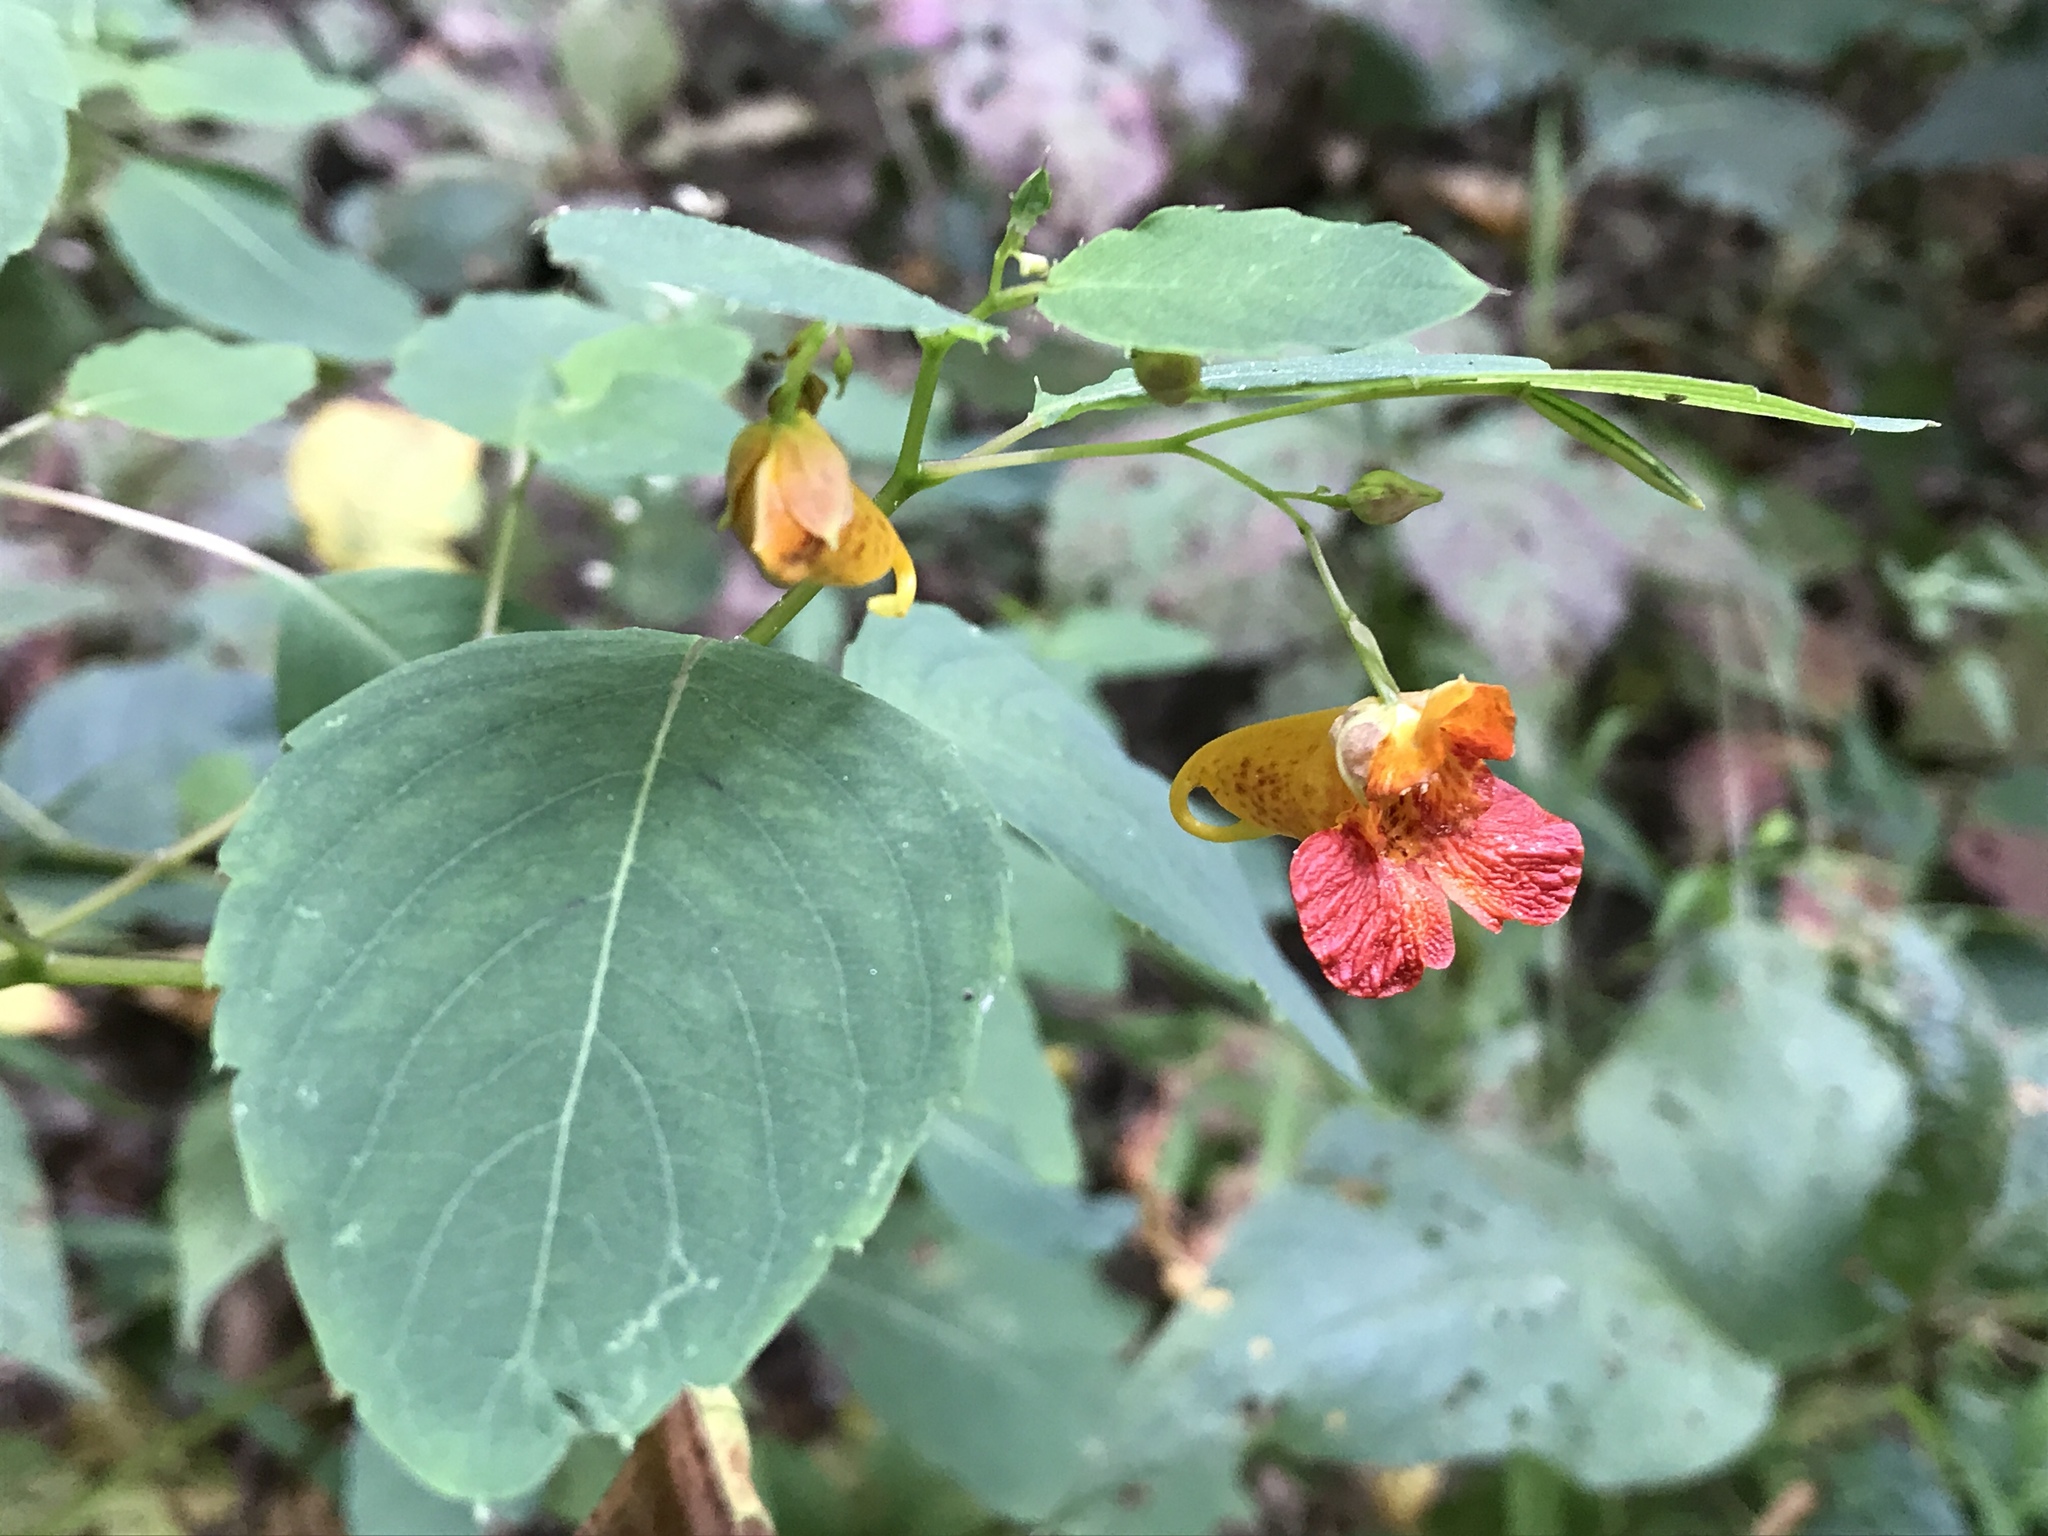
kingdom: Plantae
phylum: Tracheophyta
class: Magnoliopsida
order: Ericales
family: Balsaminaceae
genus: Impatiens
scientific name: Impatiens capensis
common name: Orange balsam
